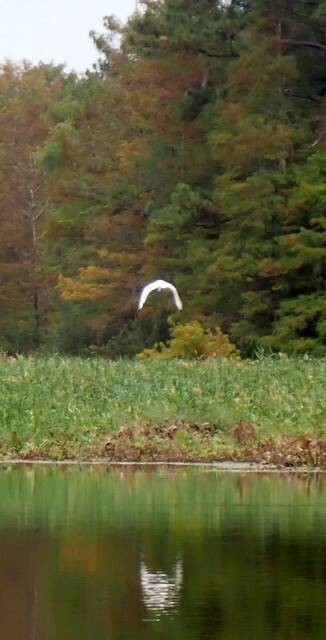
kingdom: Animalia
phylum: Chordata
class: Aves
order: Pelecaniformes
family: Ardeidae
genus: Ardea
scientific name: Ardea alba
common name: Great egret
